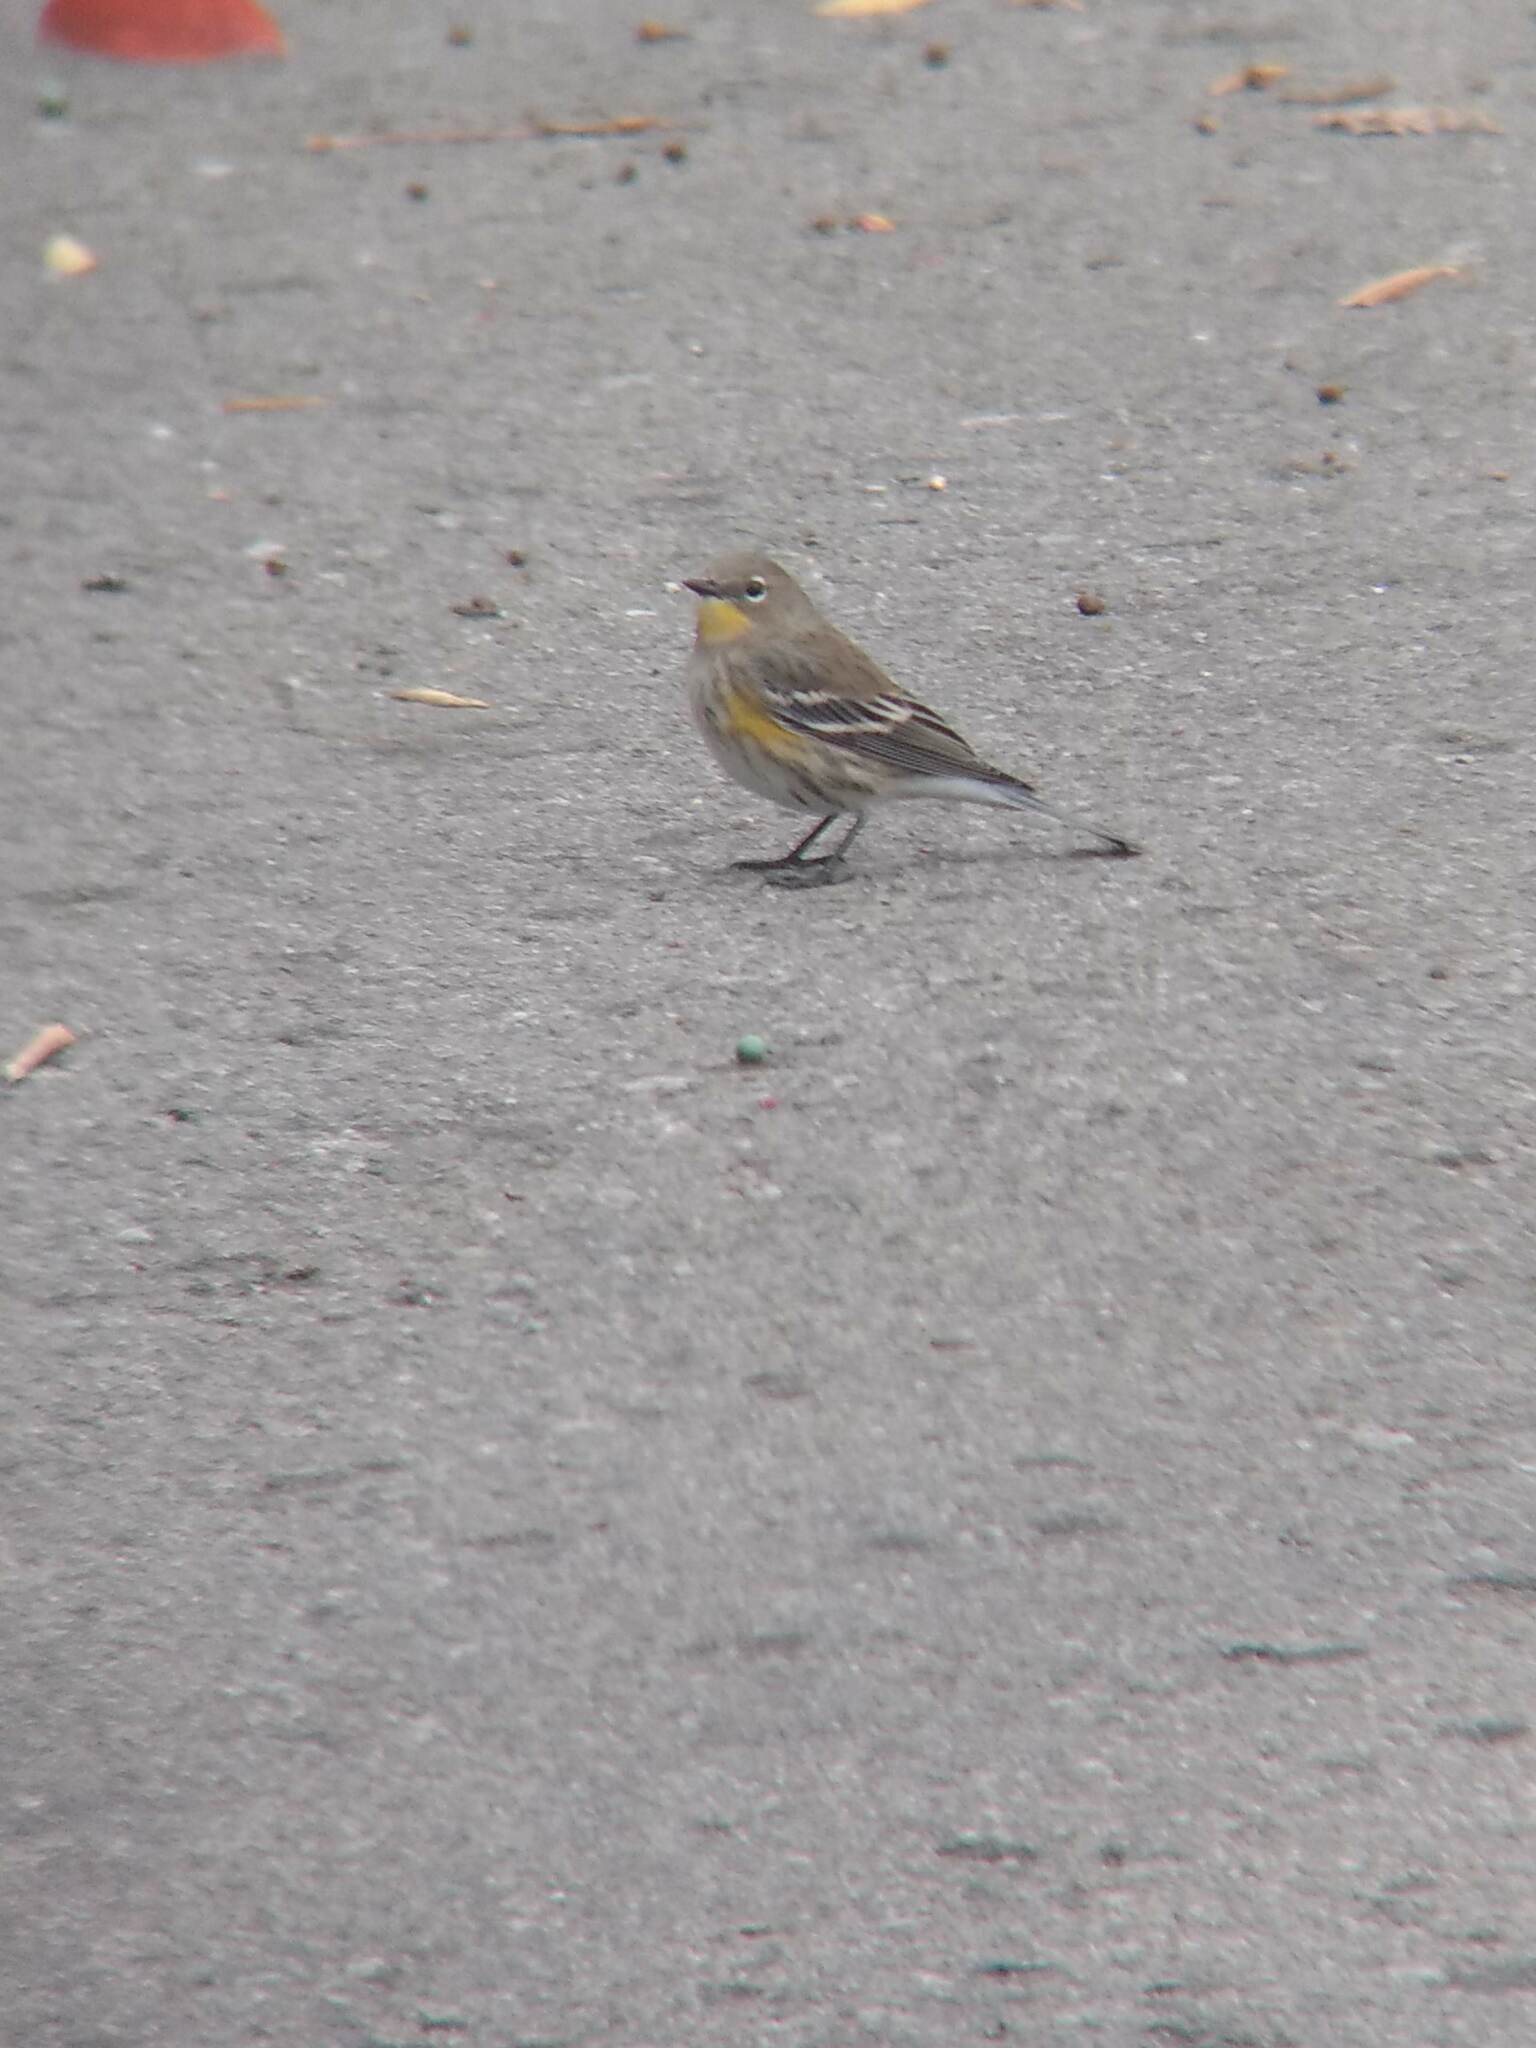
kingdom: Animalia
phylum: Chordata
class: Aves
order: Passeriformes
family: Parulidae
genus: Setophaga
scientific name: Setophaga coronata
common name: Myrtle warbler
